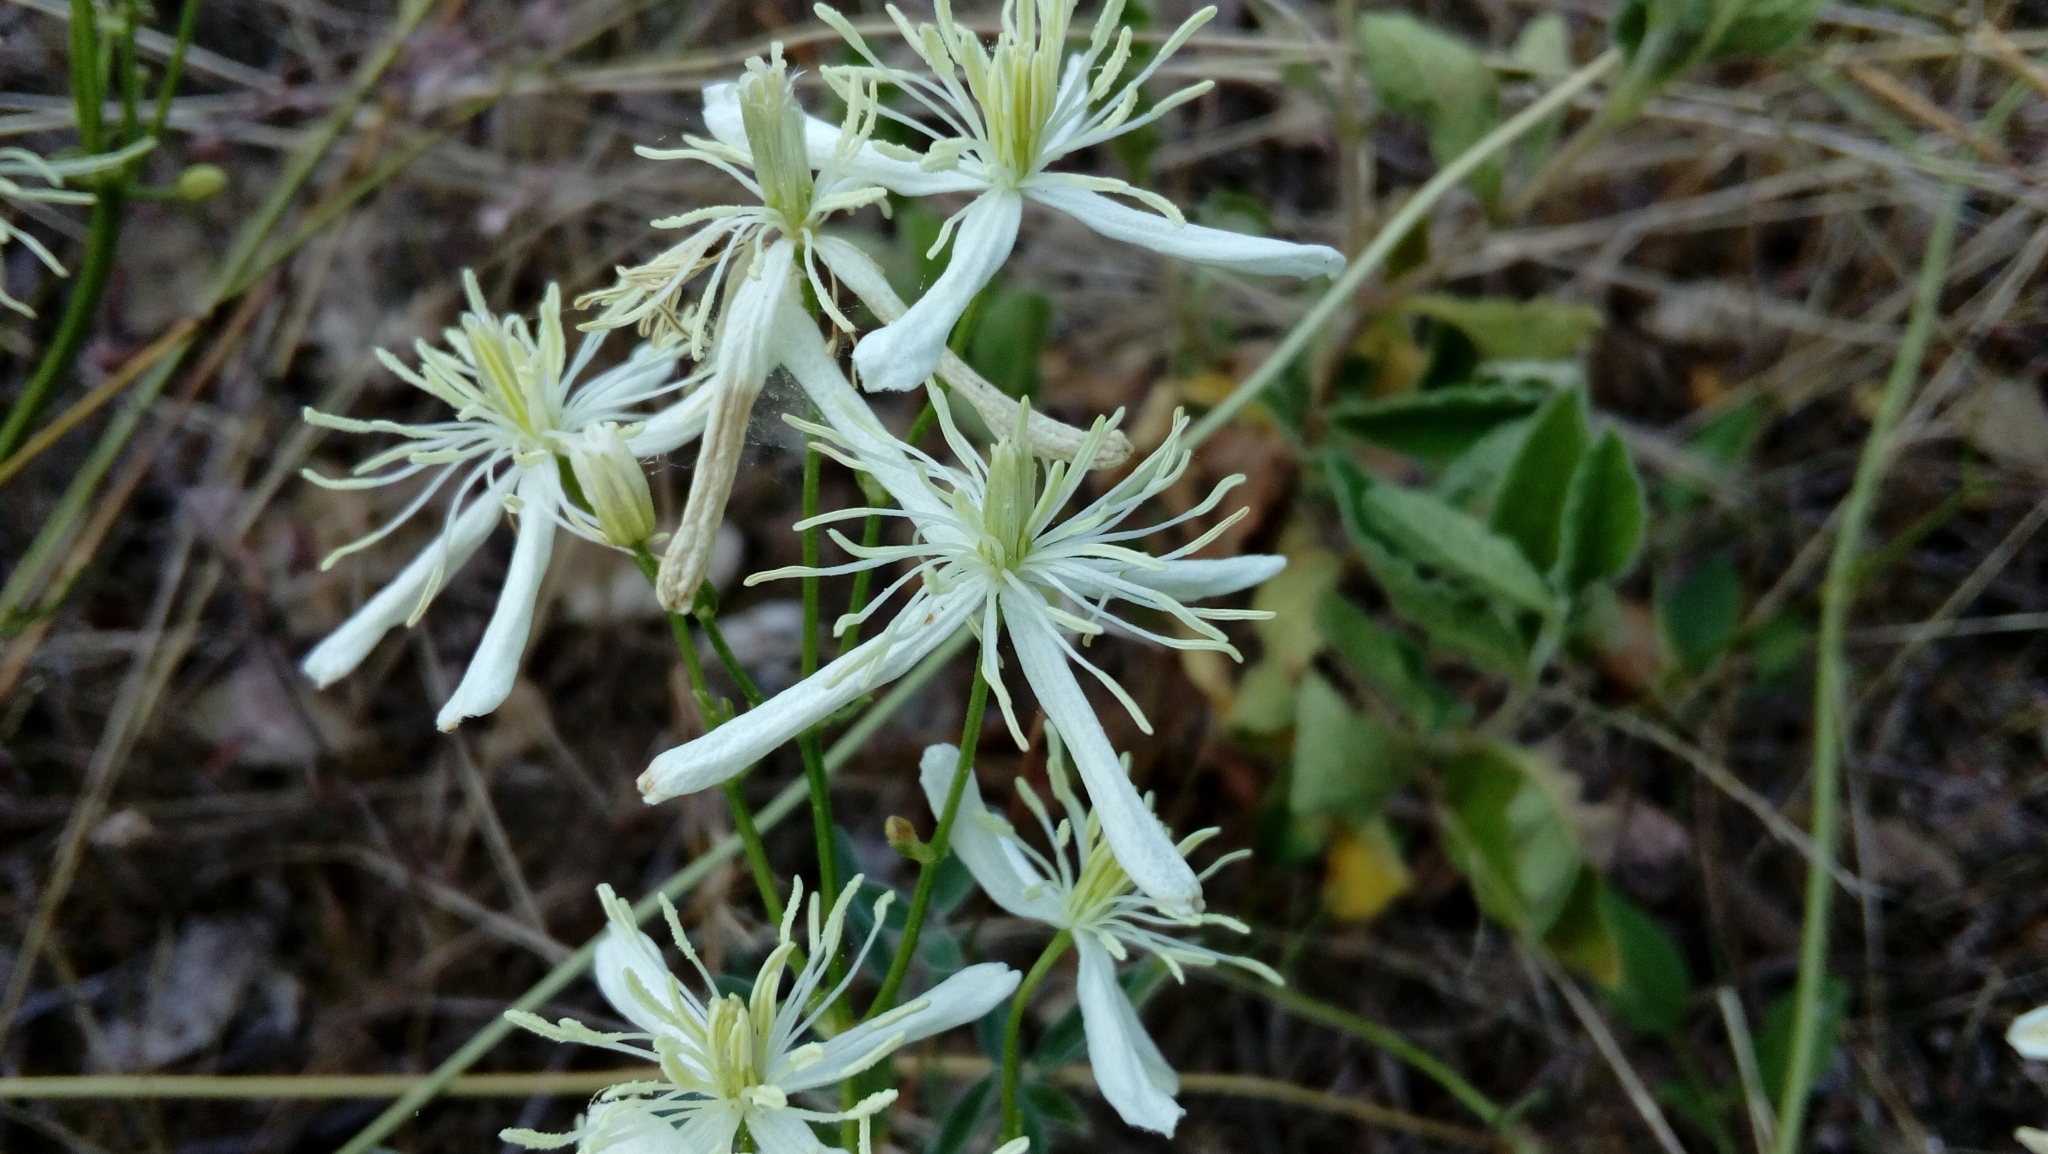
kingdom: Plantae
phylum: Tracheophyta
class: Magnoliopsida
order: Ranunculales
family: Ranunculaceae
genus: Clematis
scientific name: Clematis flammula
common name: Virgin's-bower
